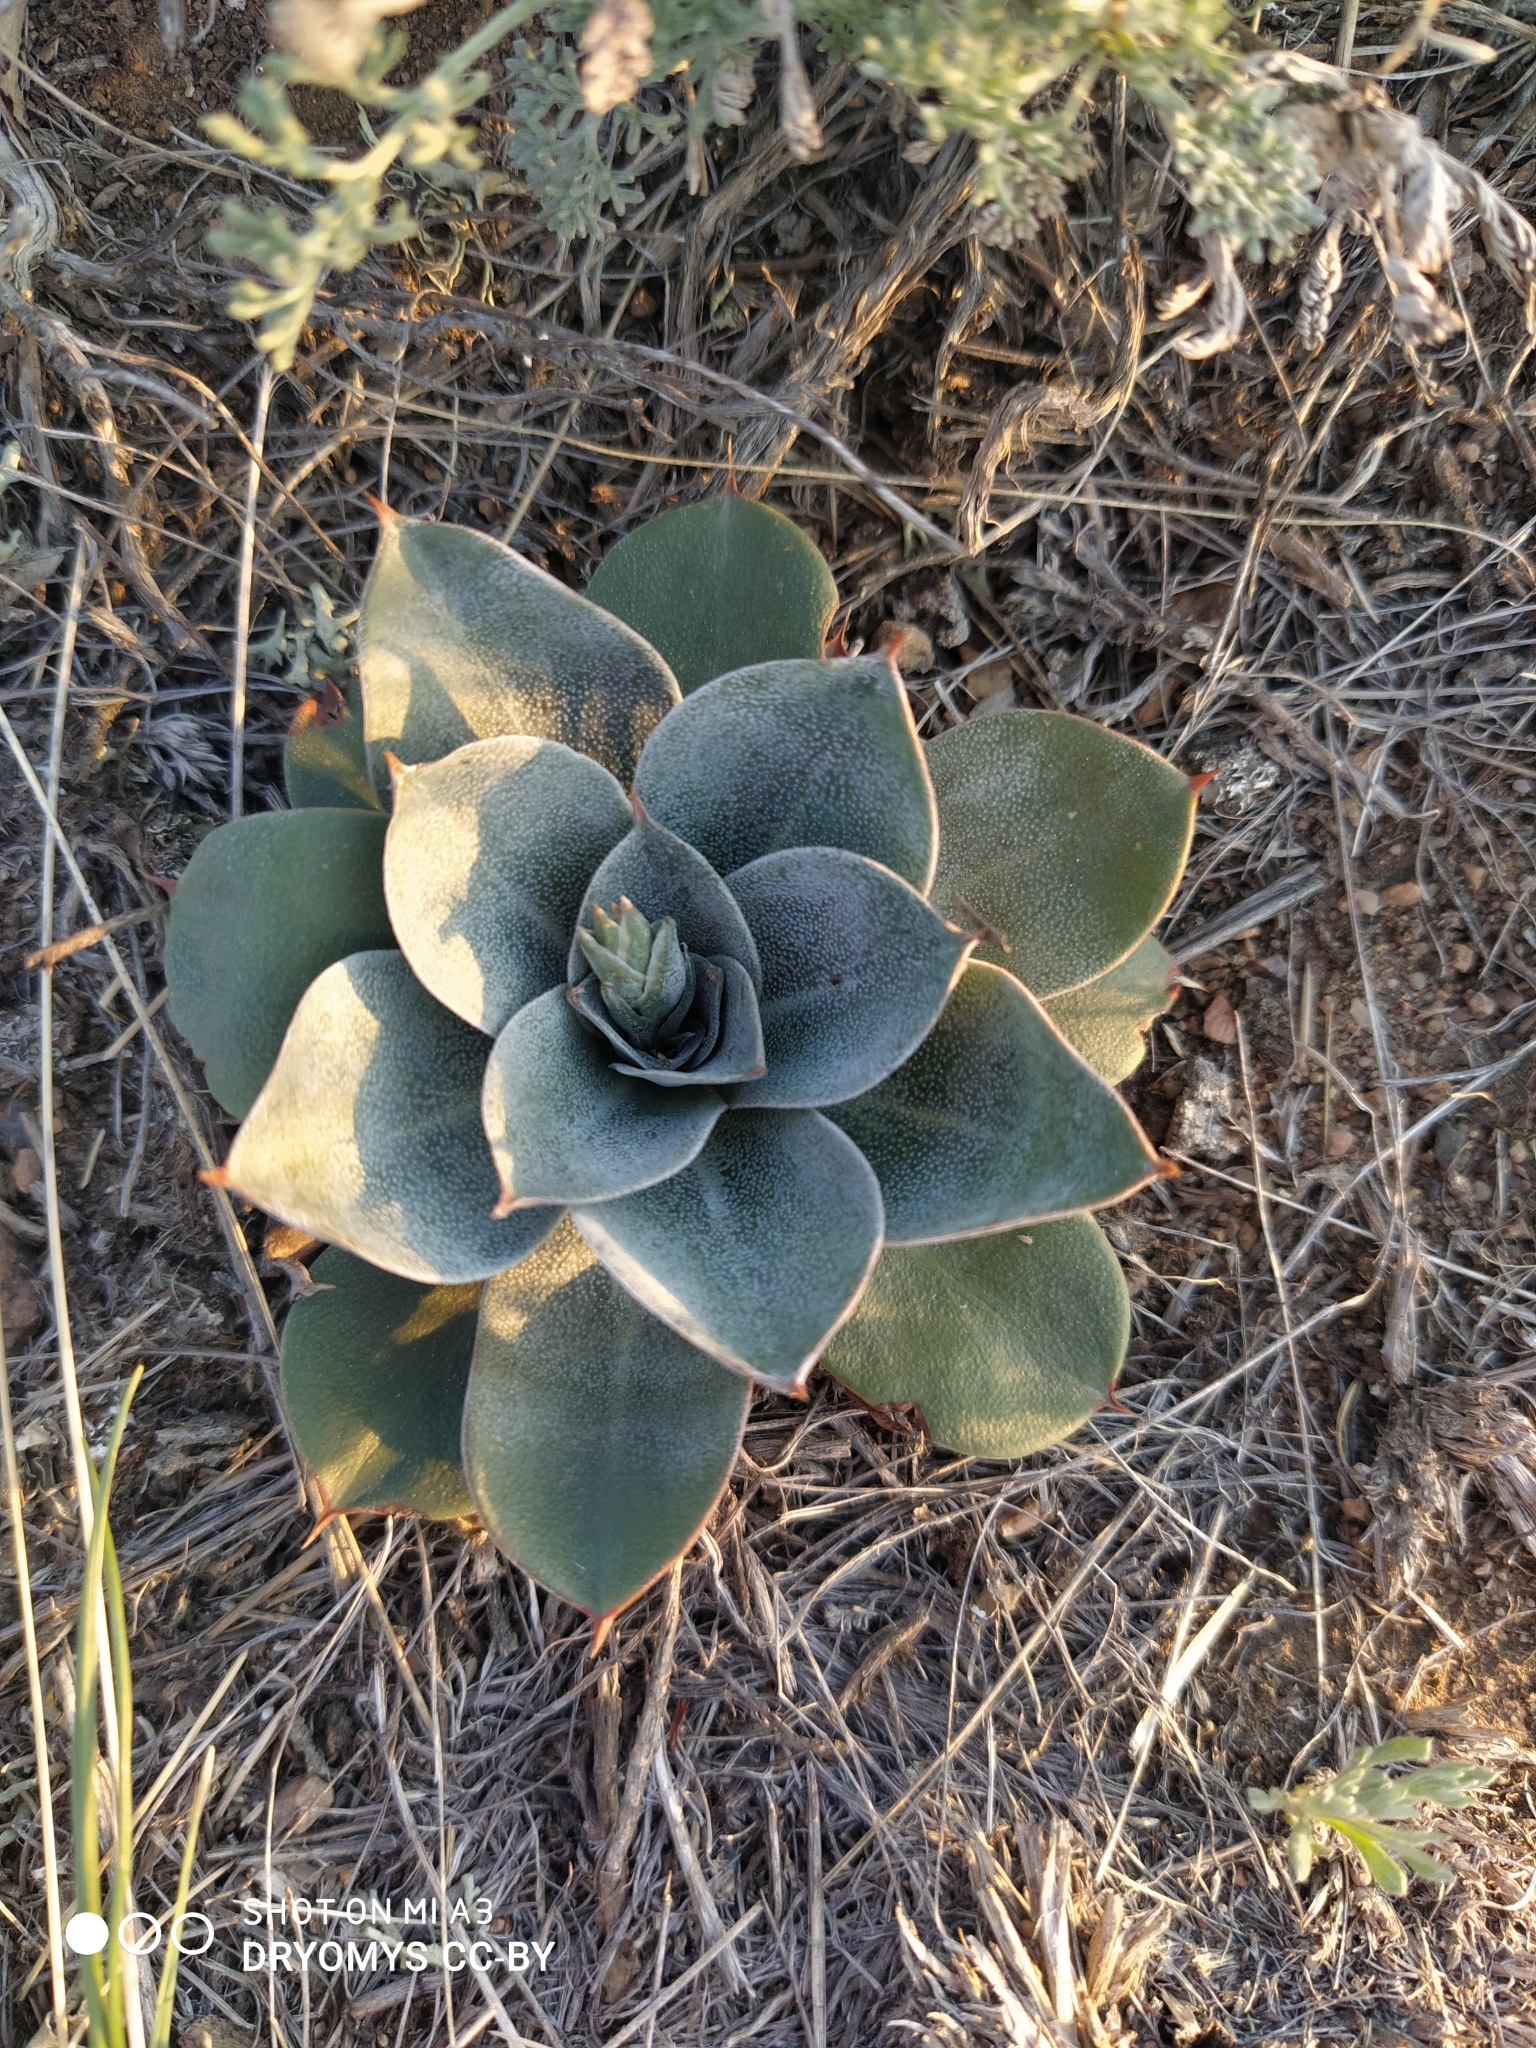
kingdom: Plantae
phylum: Tracheophyta
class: Magnoliopsida
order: Caryophyllales
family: Plumbaginaceae
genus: Goniolimon
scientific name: Goniolimon speciosum
